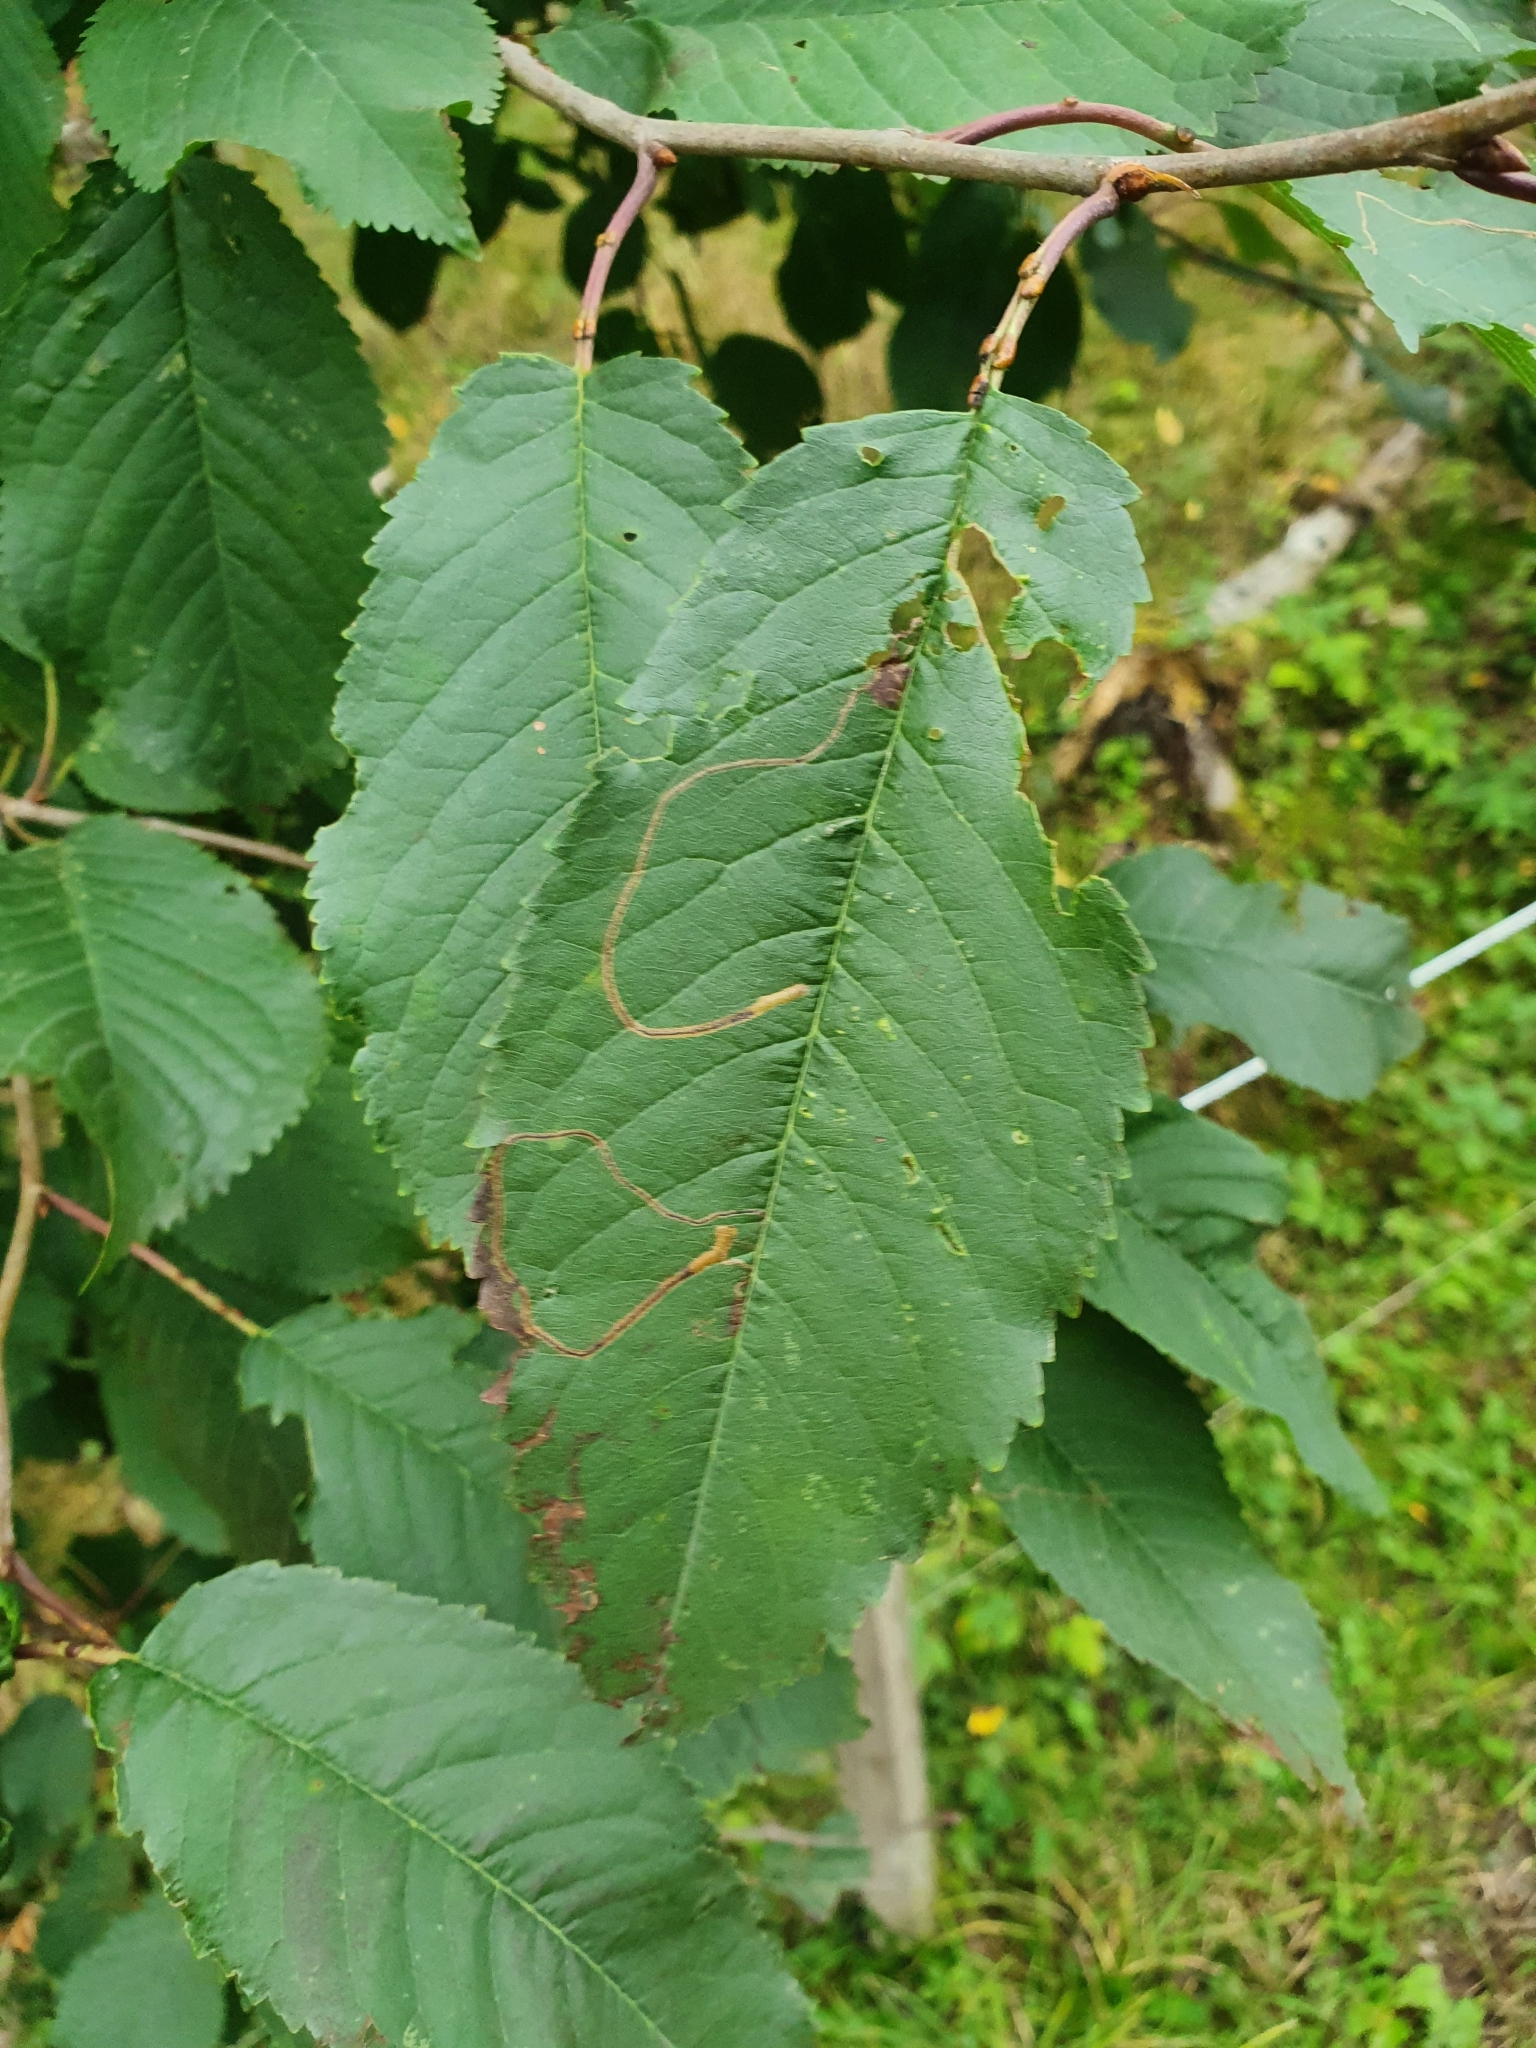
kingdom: Animalia
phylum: Arthropoda
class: Insecta
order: Lepidoptera
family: Lyonetiidae
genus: Lyonetia
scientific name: Lyonetia clerkella
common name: Apple leaf miner
